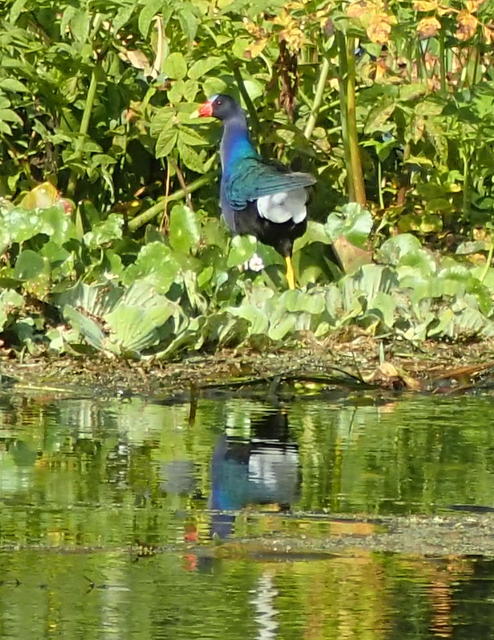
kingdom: Animalia
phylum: Chordata
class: Aves
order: Gruiformes
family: Rallidae
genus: Porphyrio
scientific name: Porphyrio martinica
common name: Purple gallinule
